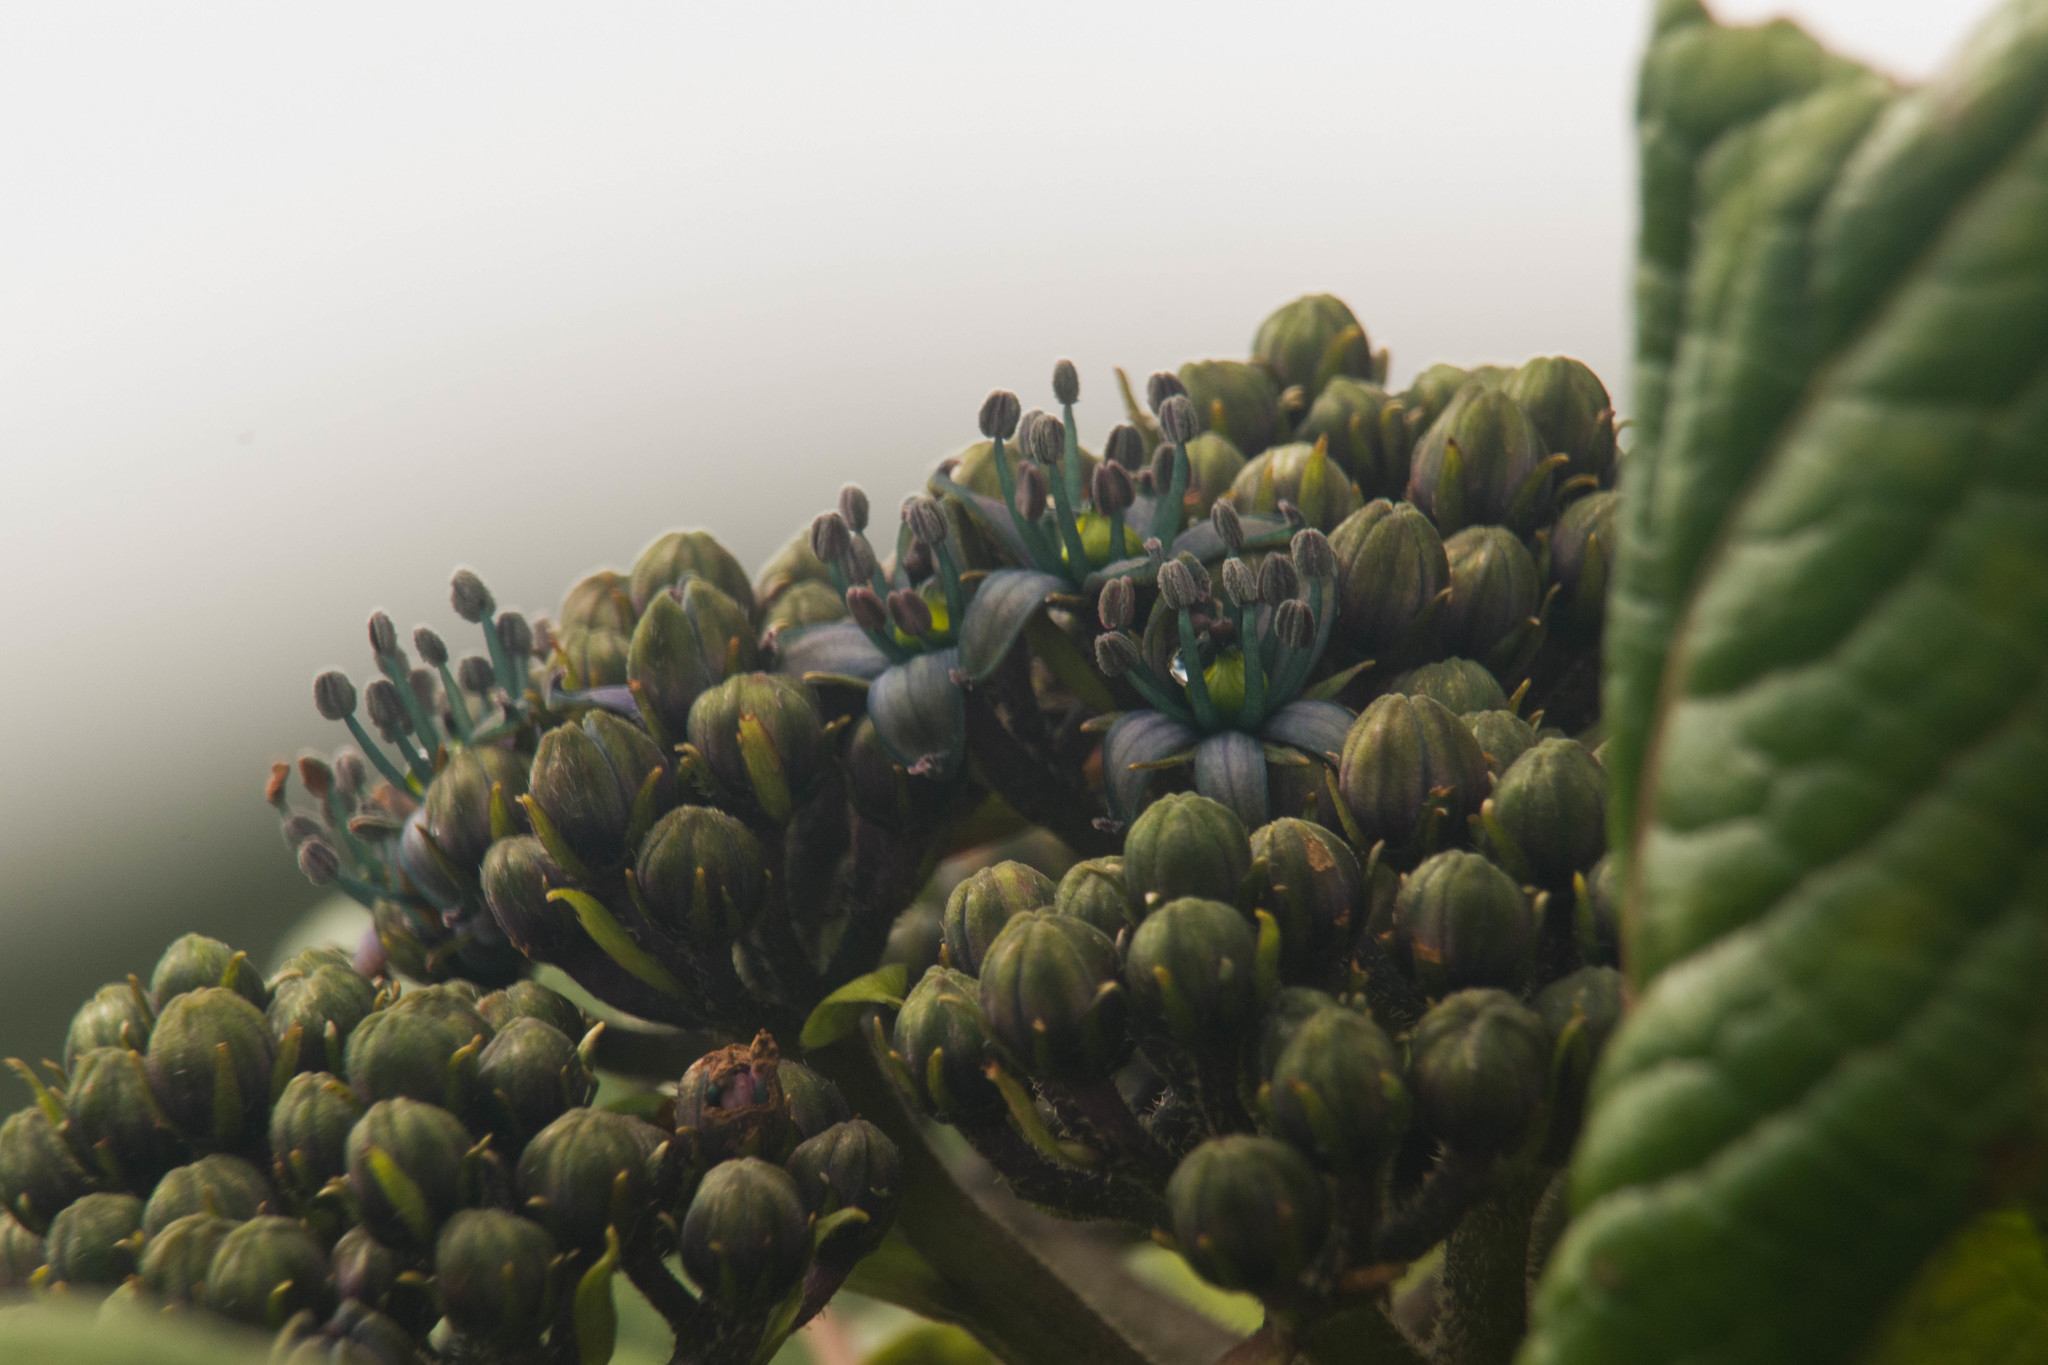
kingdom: Plantae
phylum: Tracheophyta
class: Magnoliopsida
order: Cornales
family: Hydrangeaceae
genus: Hydrangea
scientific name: Hydrangea arguta
